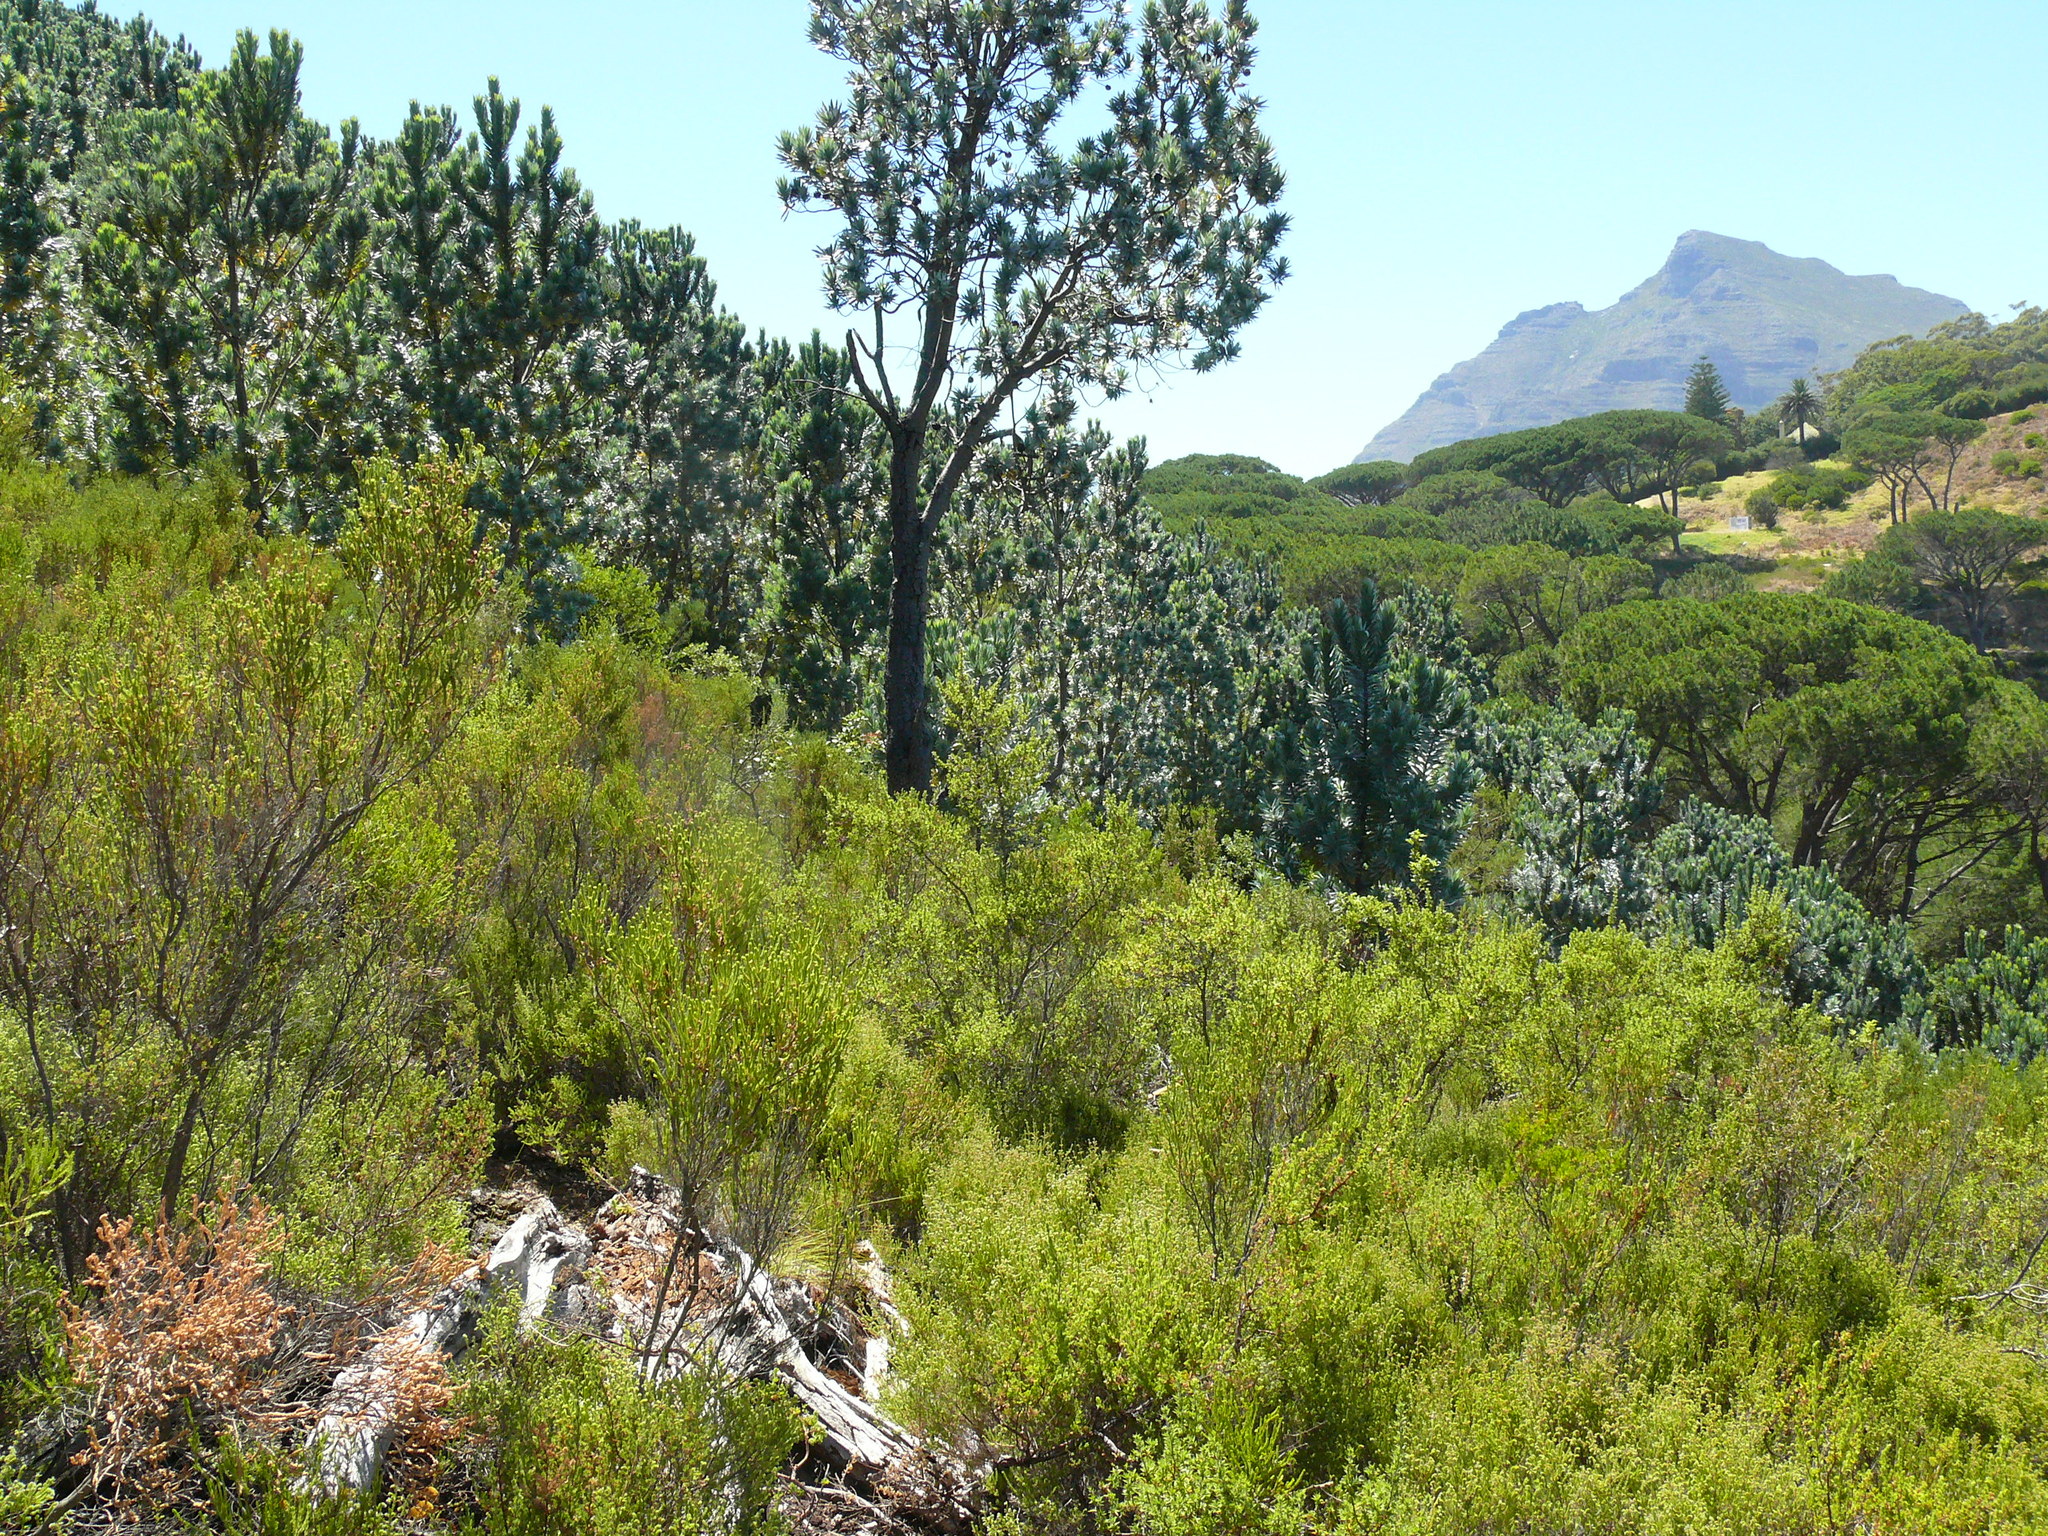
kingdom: Plantae
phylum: Tracheophyta
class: Magnoliopsida
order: Proteales
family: Proteaceae
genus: Leucadendron
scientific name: Leucadendron argenteum
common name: Cape silver tree
